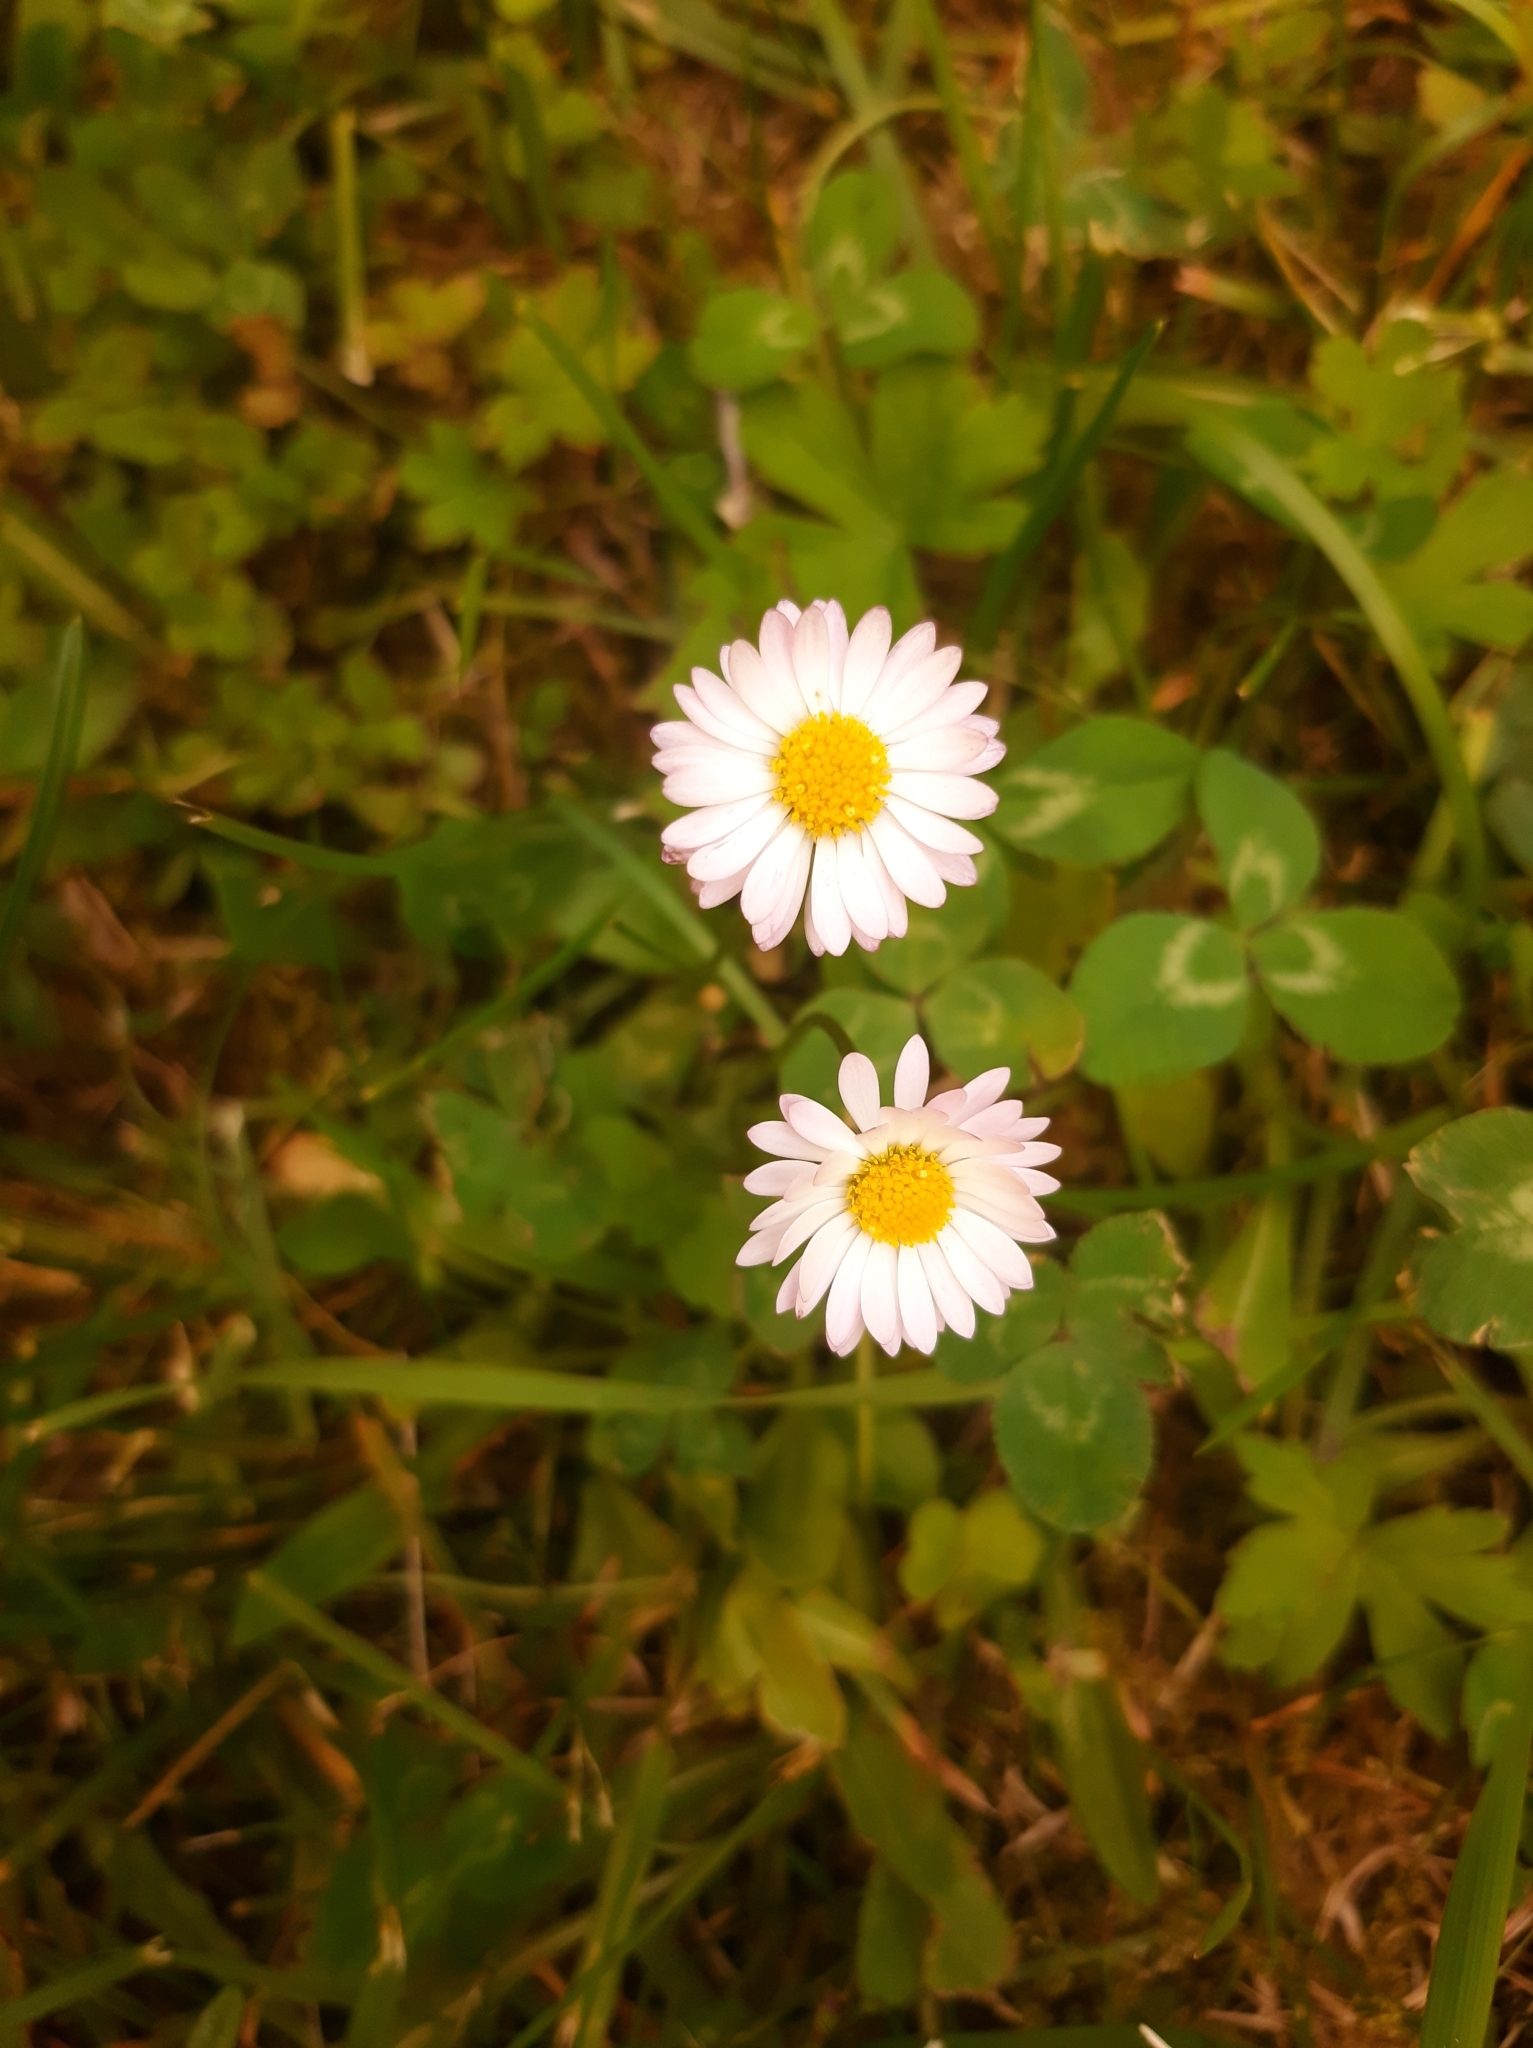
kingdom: Plantae
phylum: Tracheophyta
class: Magnoliopsida
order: Asterales
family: Asteraceae
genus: Bellis
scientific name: Bellis perennis
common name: Lawndaisy
